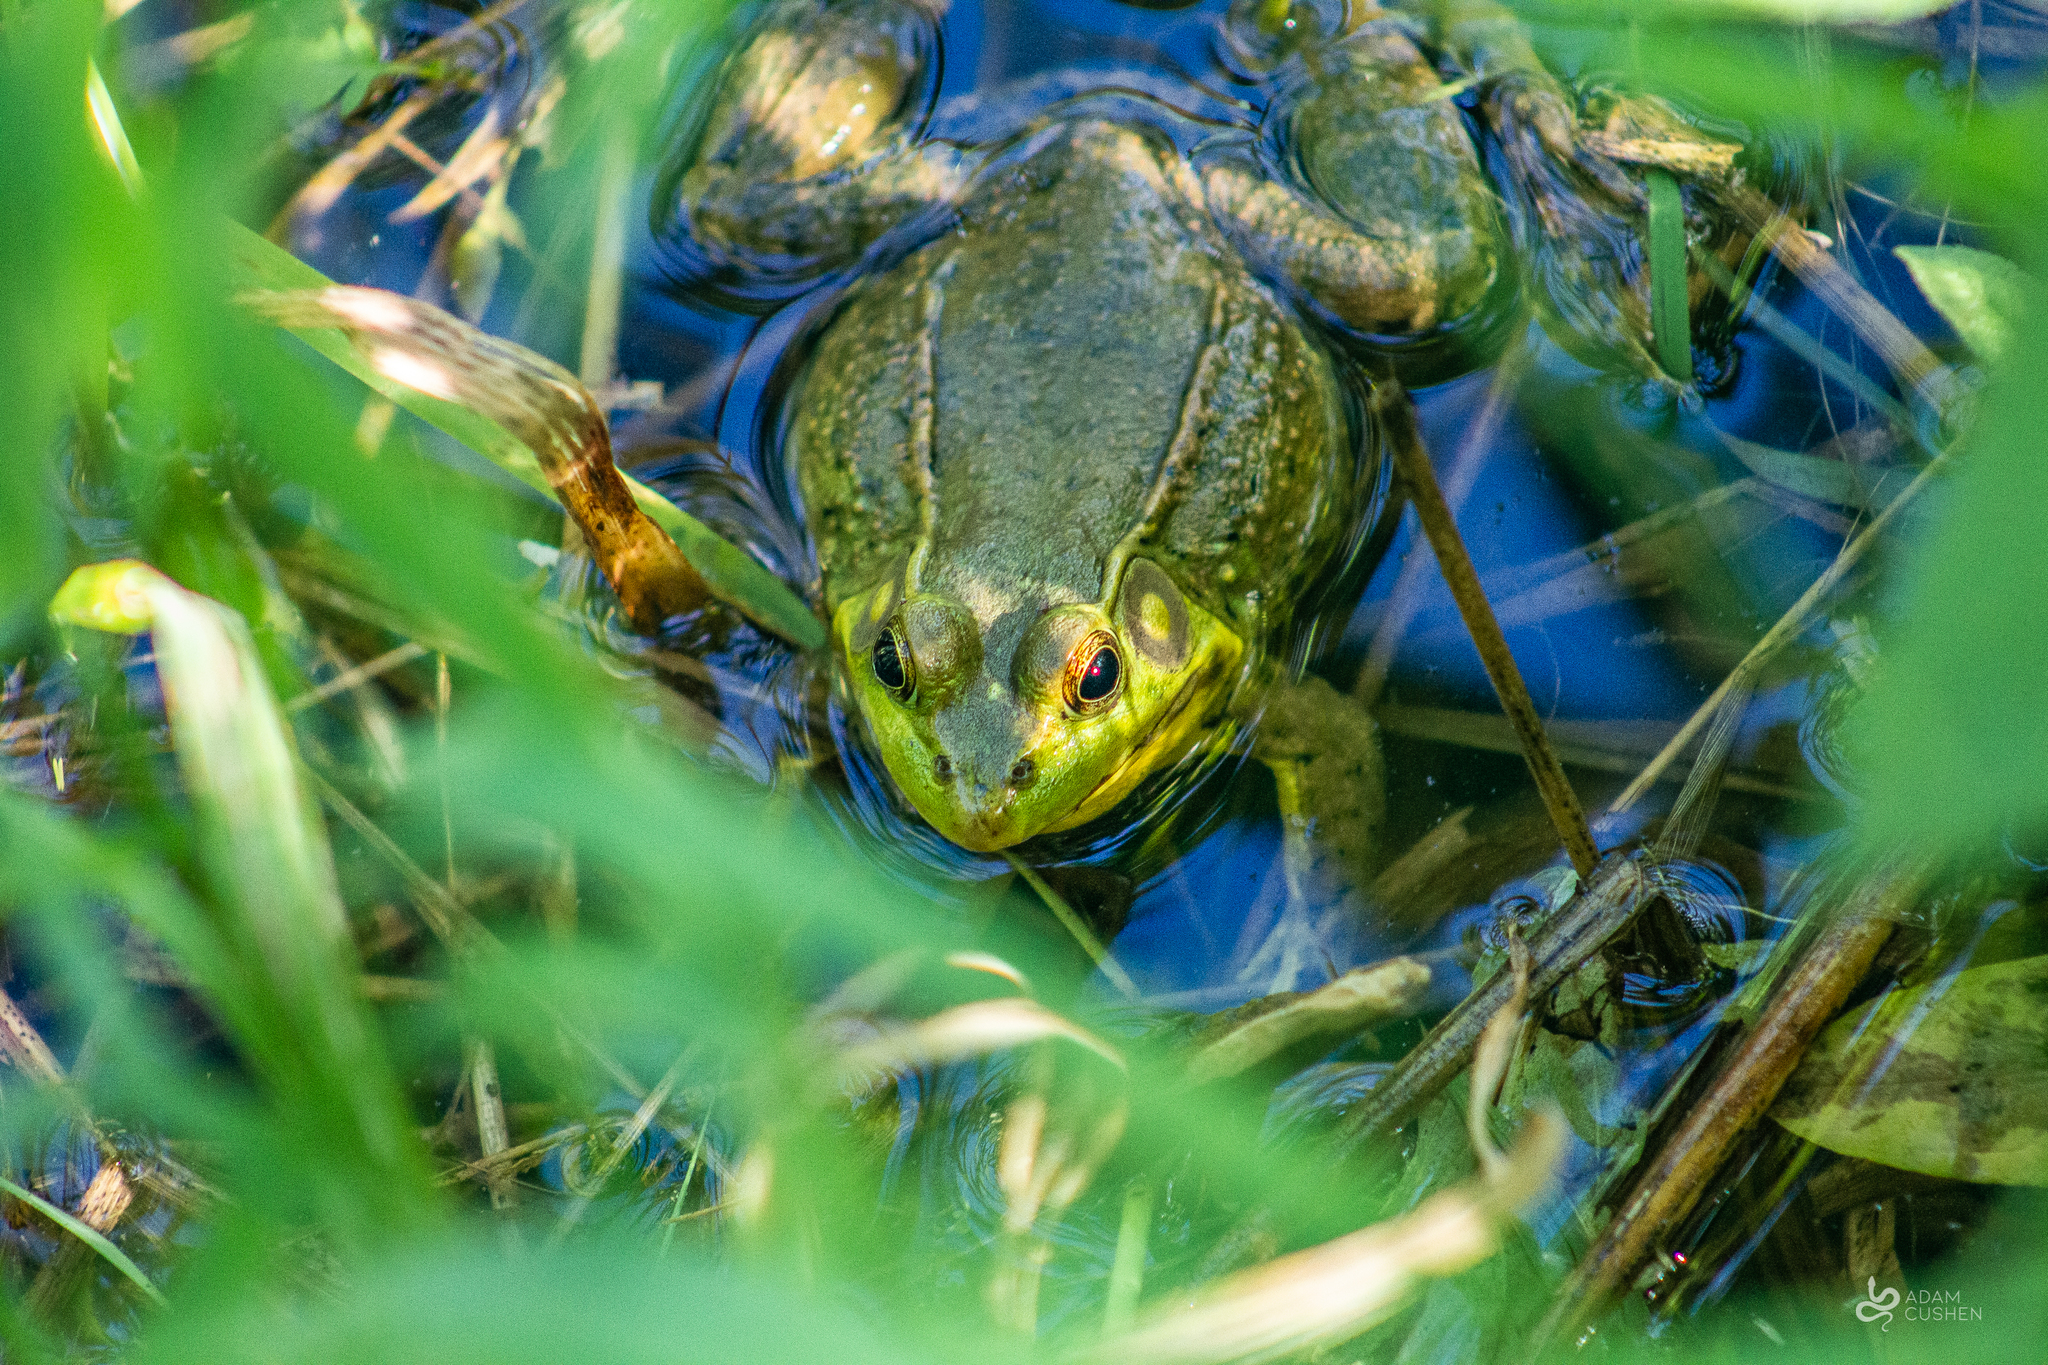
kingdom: Animalia
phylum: Chordata
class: Amphibia
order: Anura
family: Ranidae
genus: Lithobates
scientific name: Lithobates clamitans
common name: Green frog
